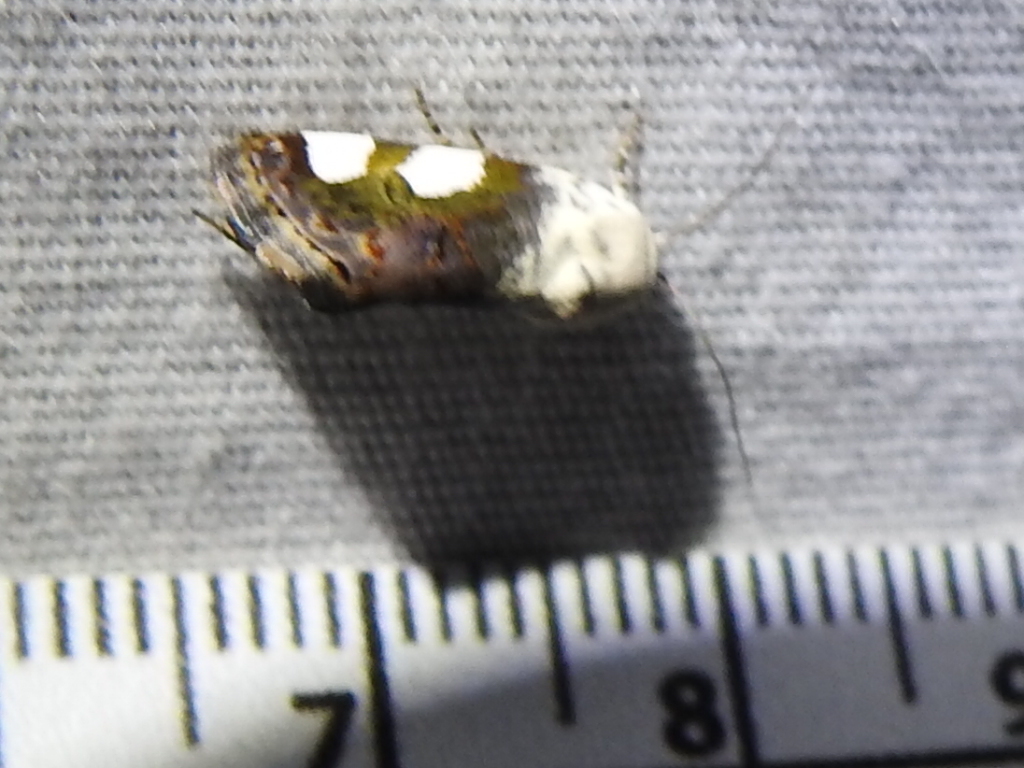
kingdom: Animalia
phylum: Arthropoda
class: Insecta
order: Lepidoptera
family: Noctuidae
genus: Acontia
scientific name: Acontia quadriplaga
